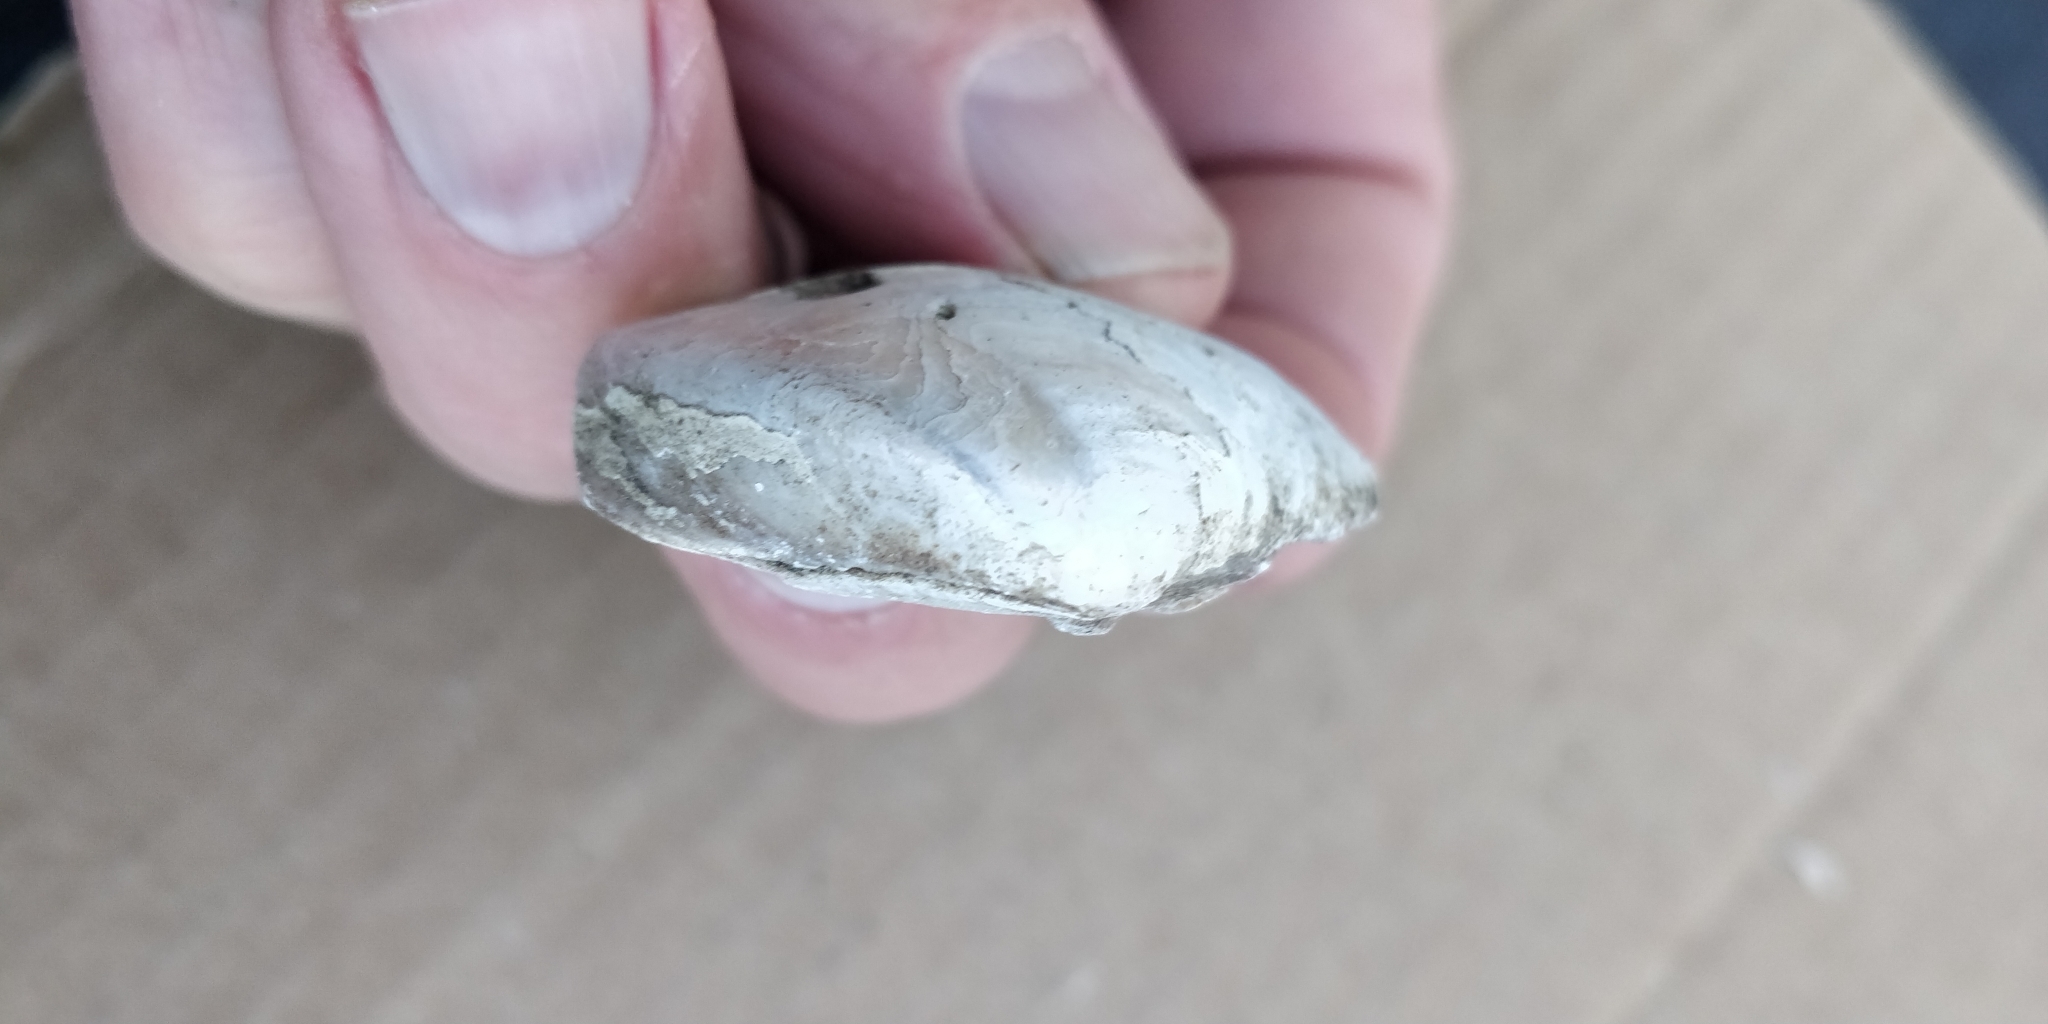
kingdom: Animalia
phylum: Mollusca
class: Bivalvia
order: Unionida
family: Unionidae
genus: Truncilla
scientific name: Truncilla truncata
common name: Deertoe
